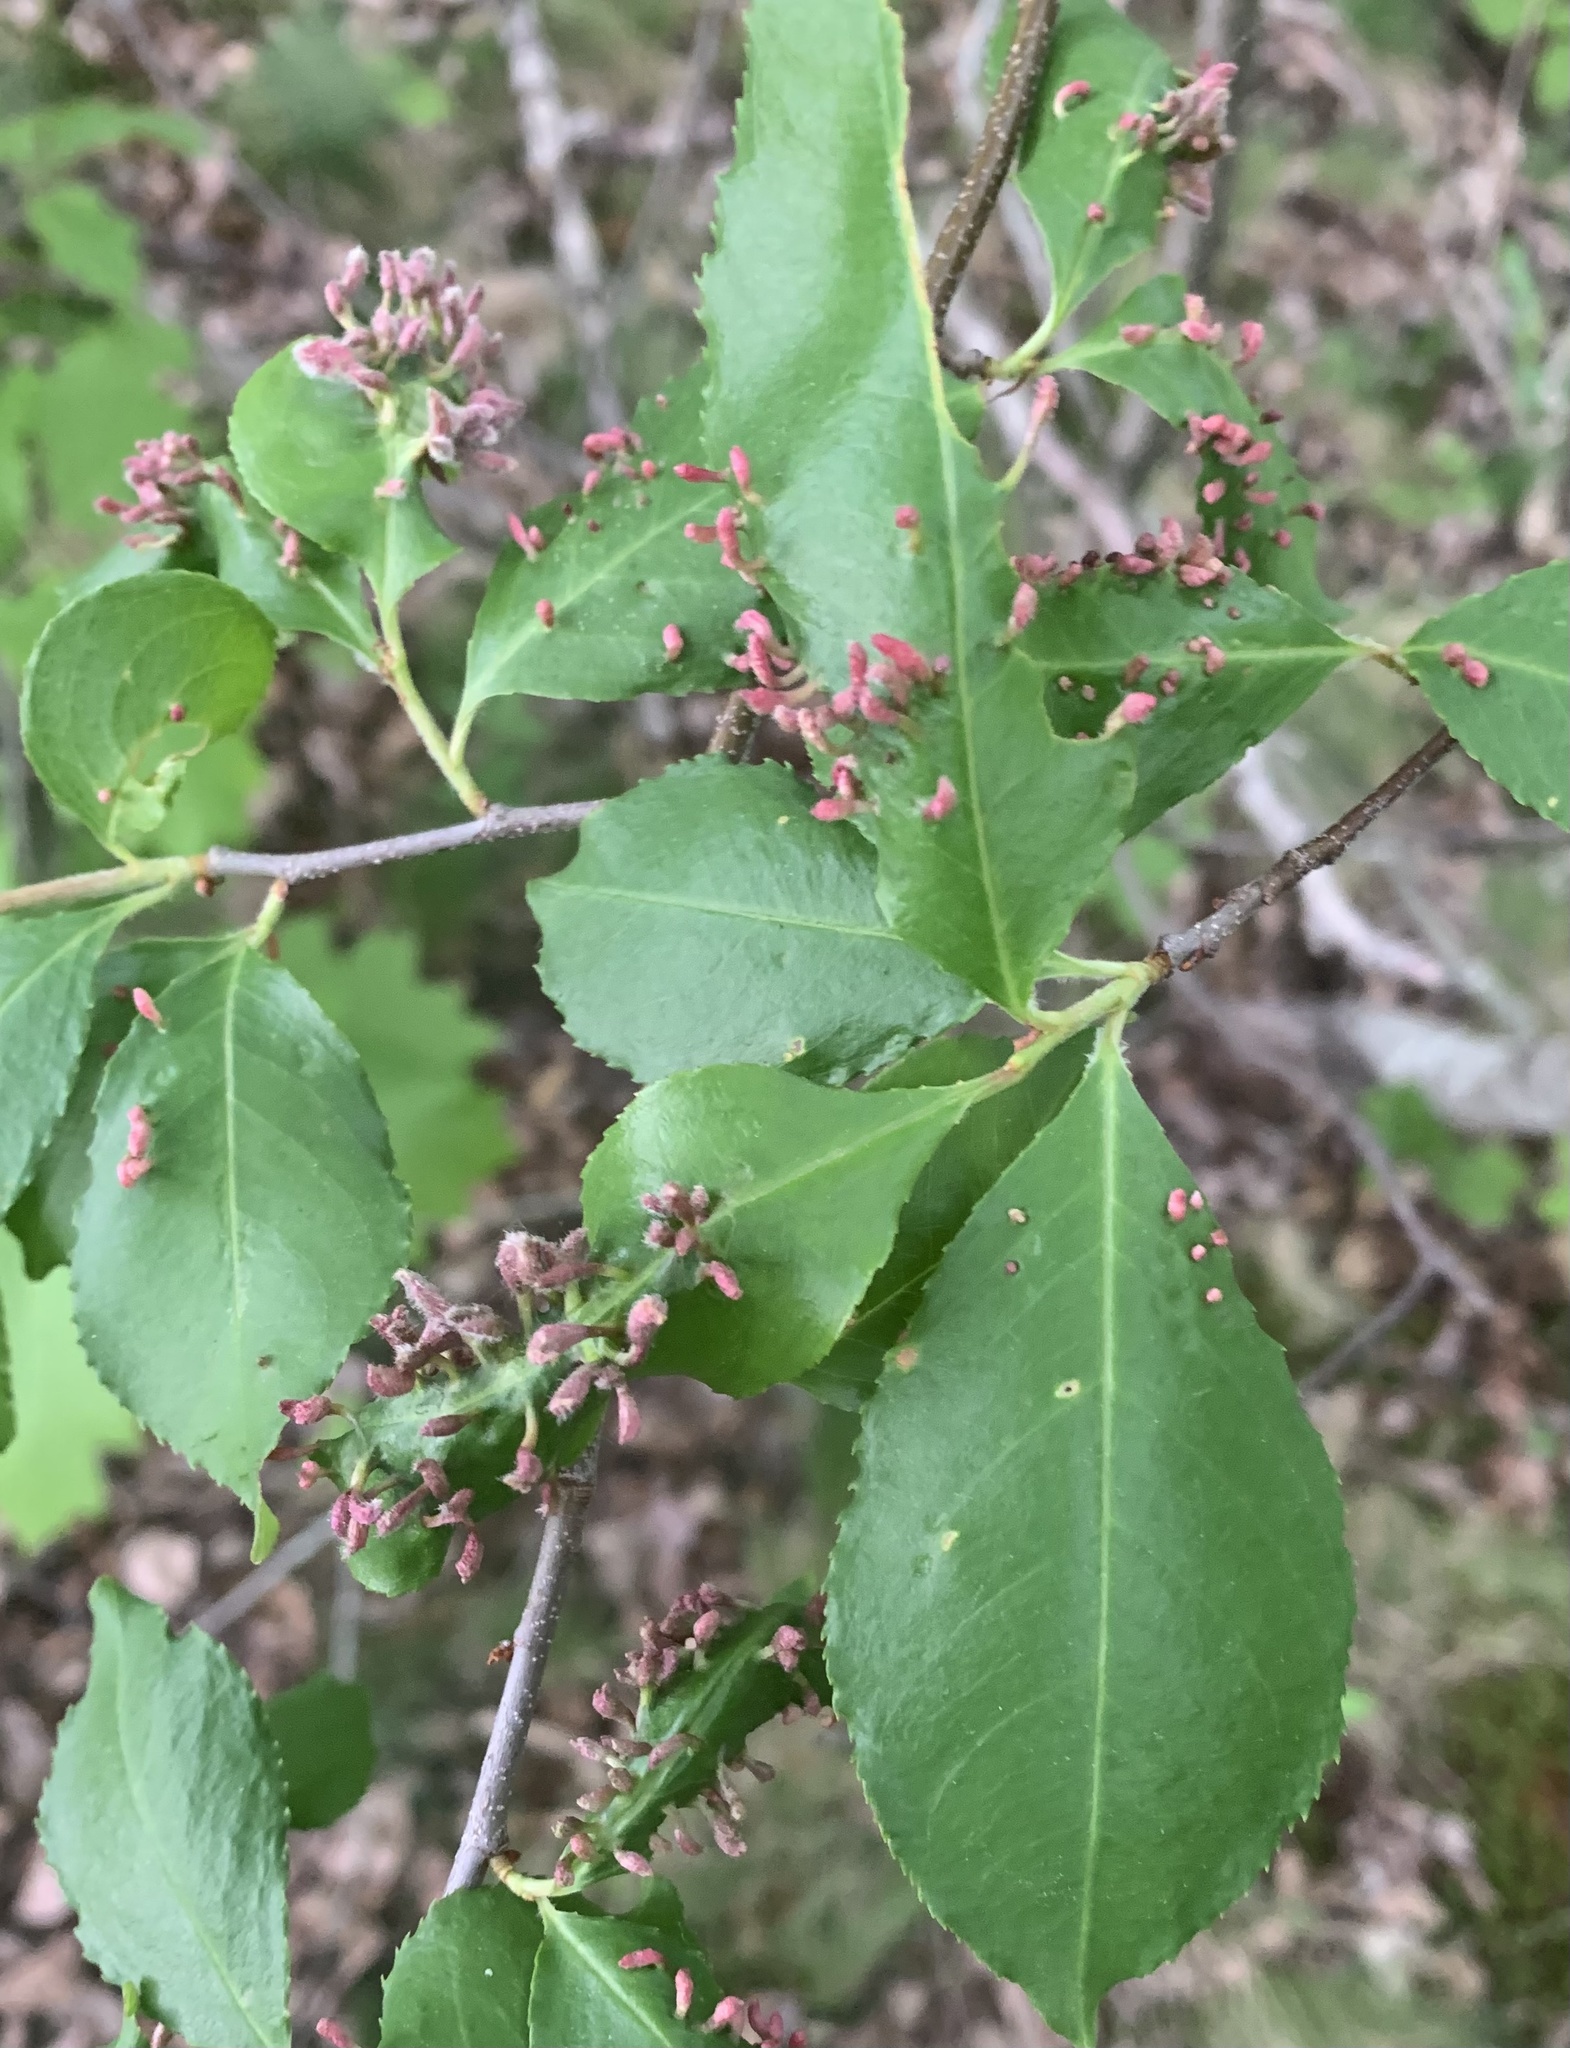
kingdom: Animalia
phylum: Arthropoda
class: Arachnida
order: Trombidiformes
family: Eriophyidae
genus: Eriophyes
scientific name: Eriophyes emarginatae
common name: Plum leaf gall mite
